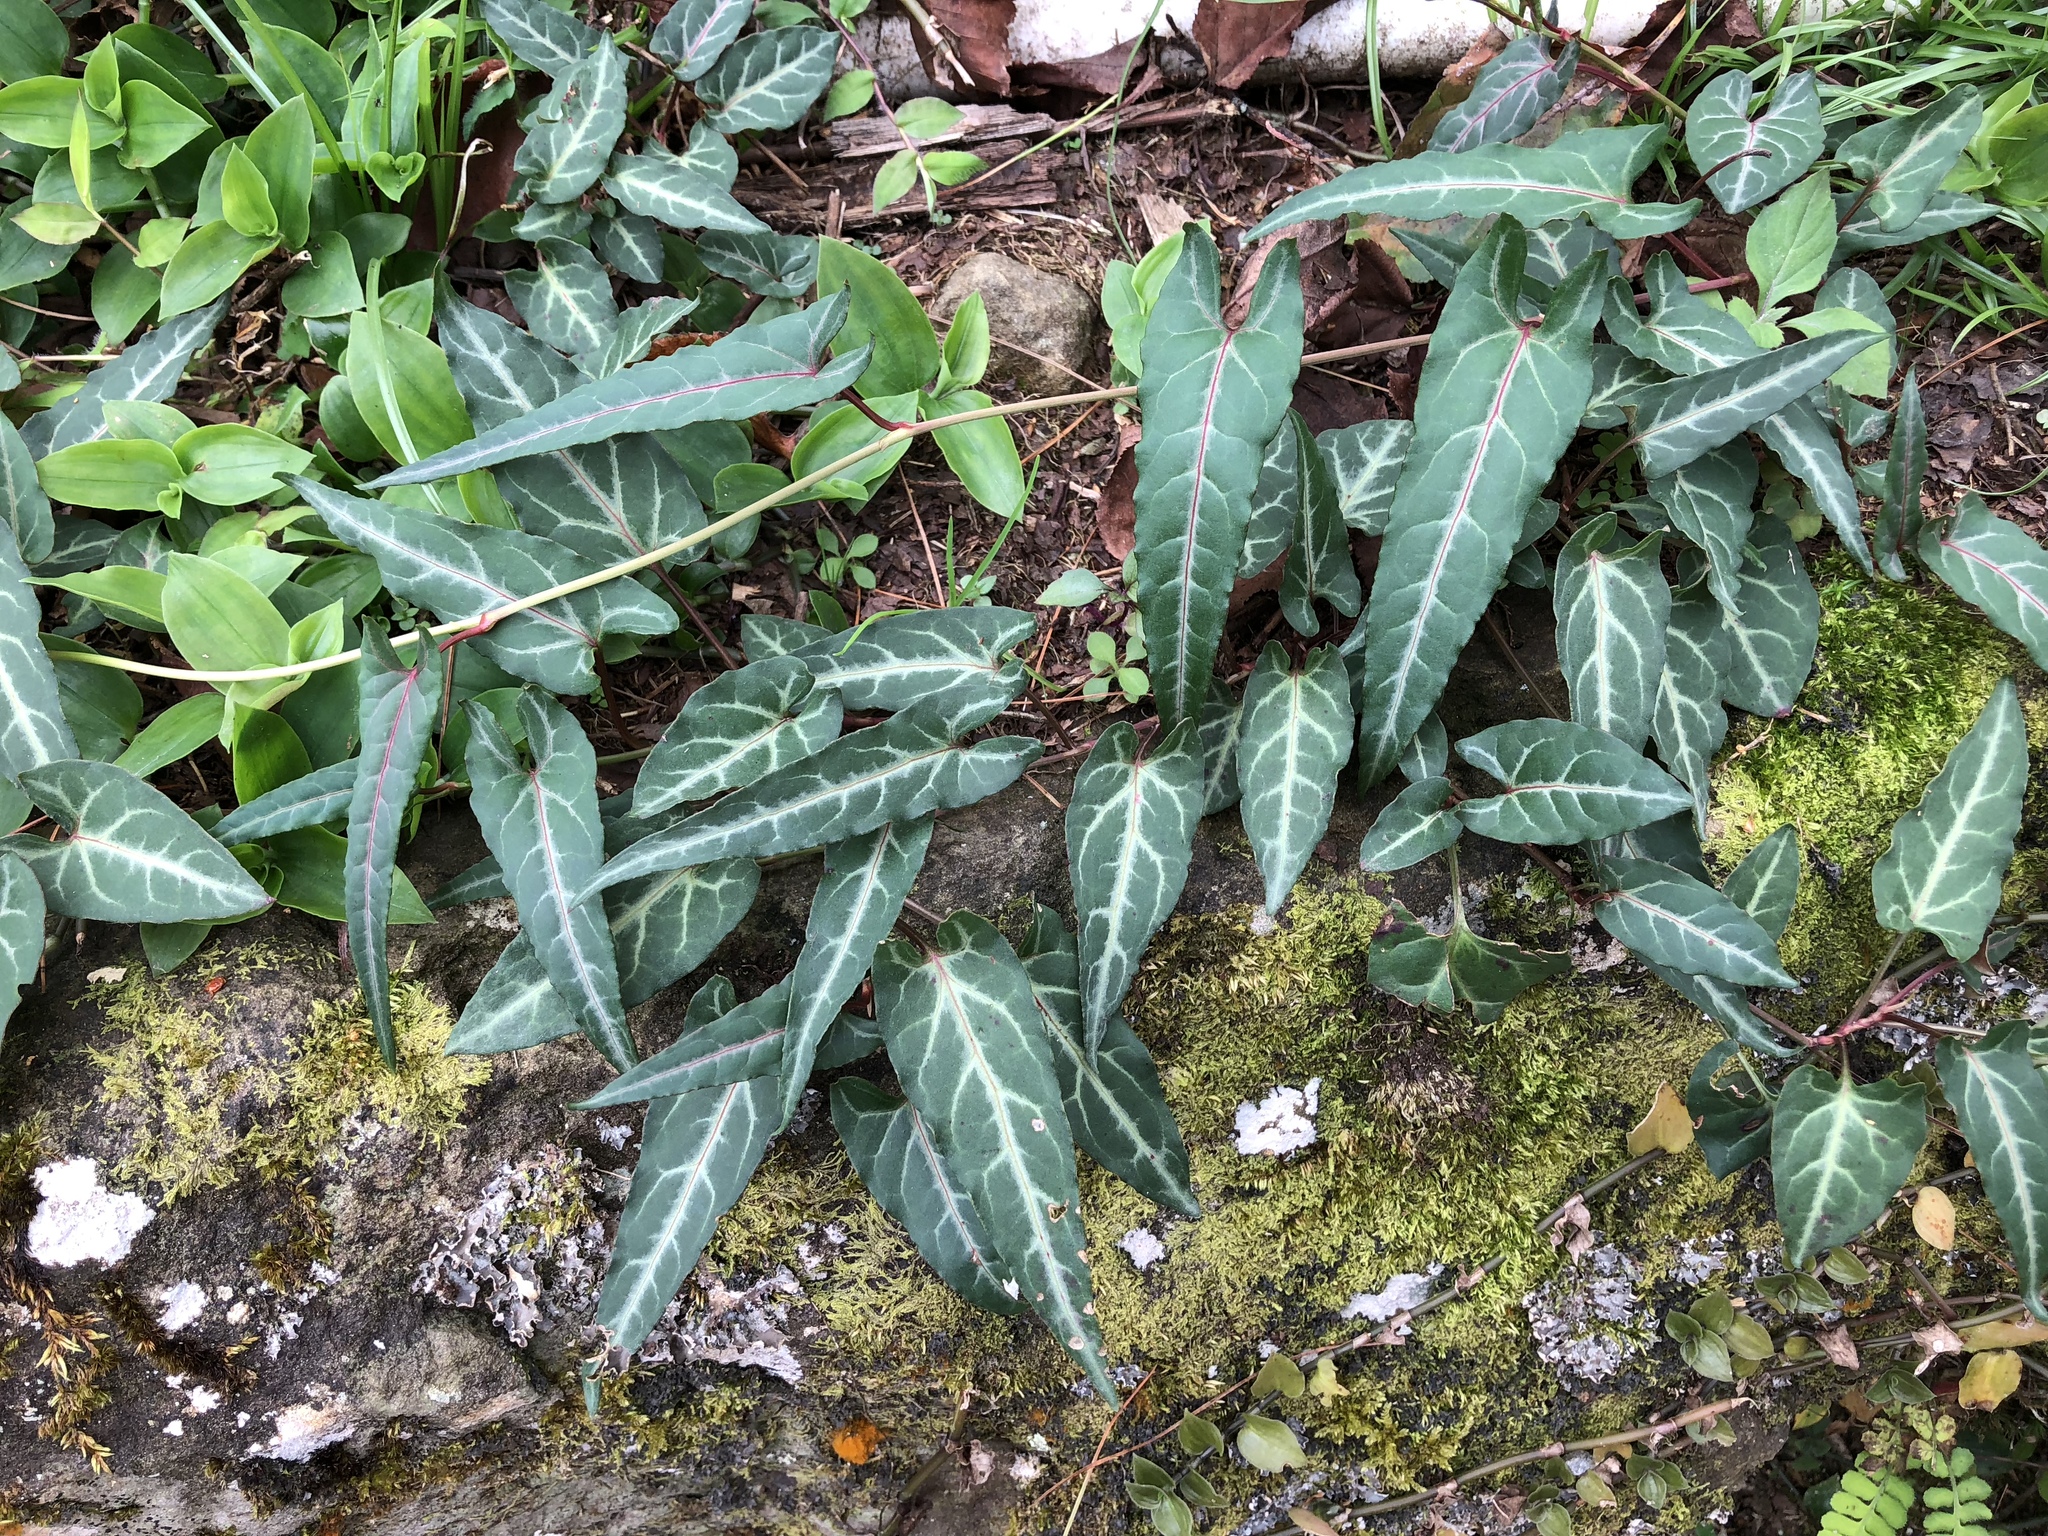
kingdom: Plantae
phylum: Tracheophyta
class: Magnoliopsida
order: Caryophyllales
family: Polygonaceae
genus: Reynoutria
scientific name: Reynoutria multiflora
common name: Chinese fleeceflower
